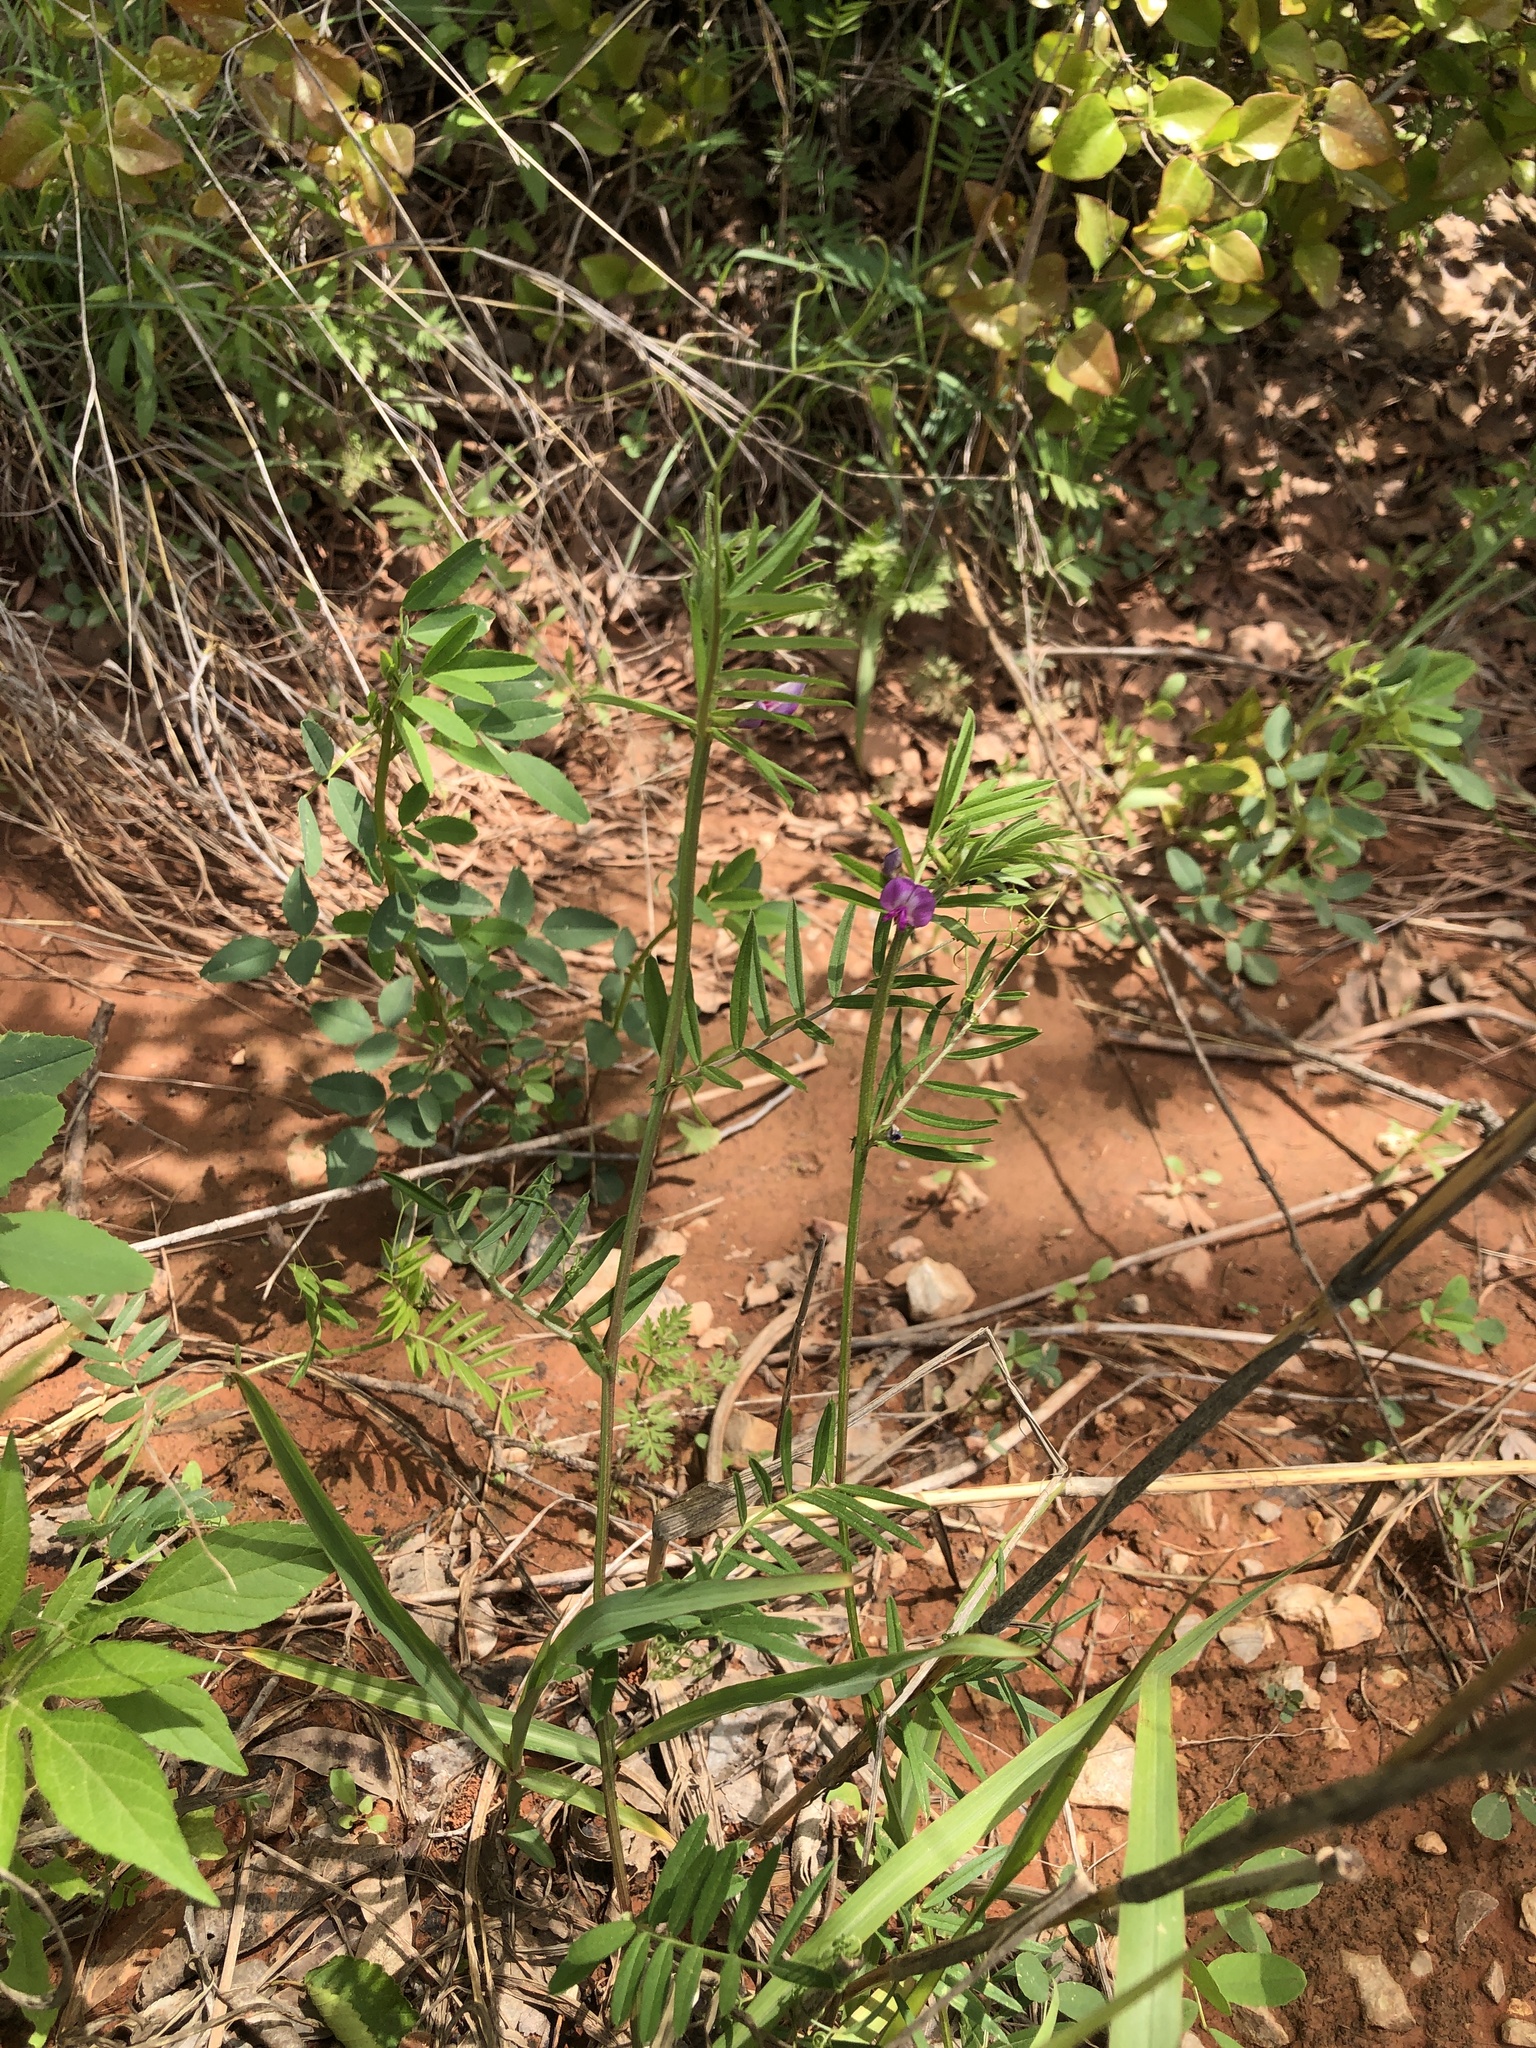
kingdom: Plantae
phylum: Tracheophyta
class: Magnoliopsida
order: Fabales
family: Fabaceae
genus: Vicia
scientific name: Vicia sativa
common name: Garden vetch
